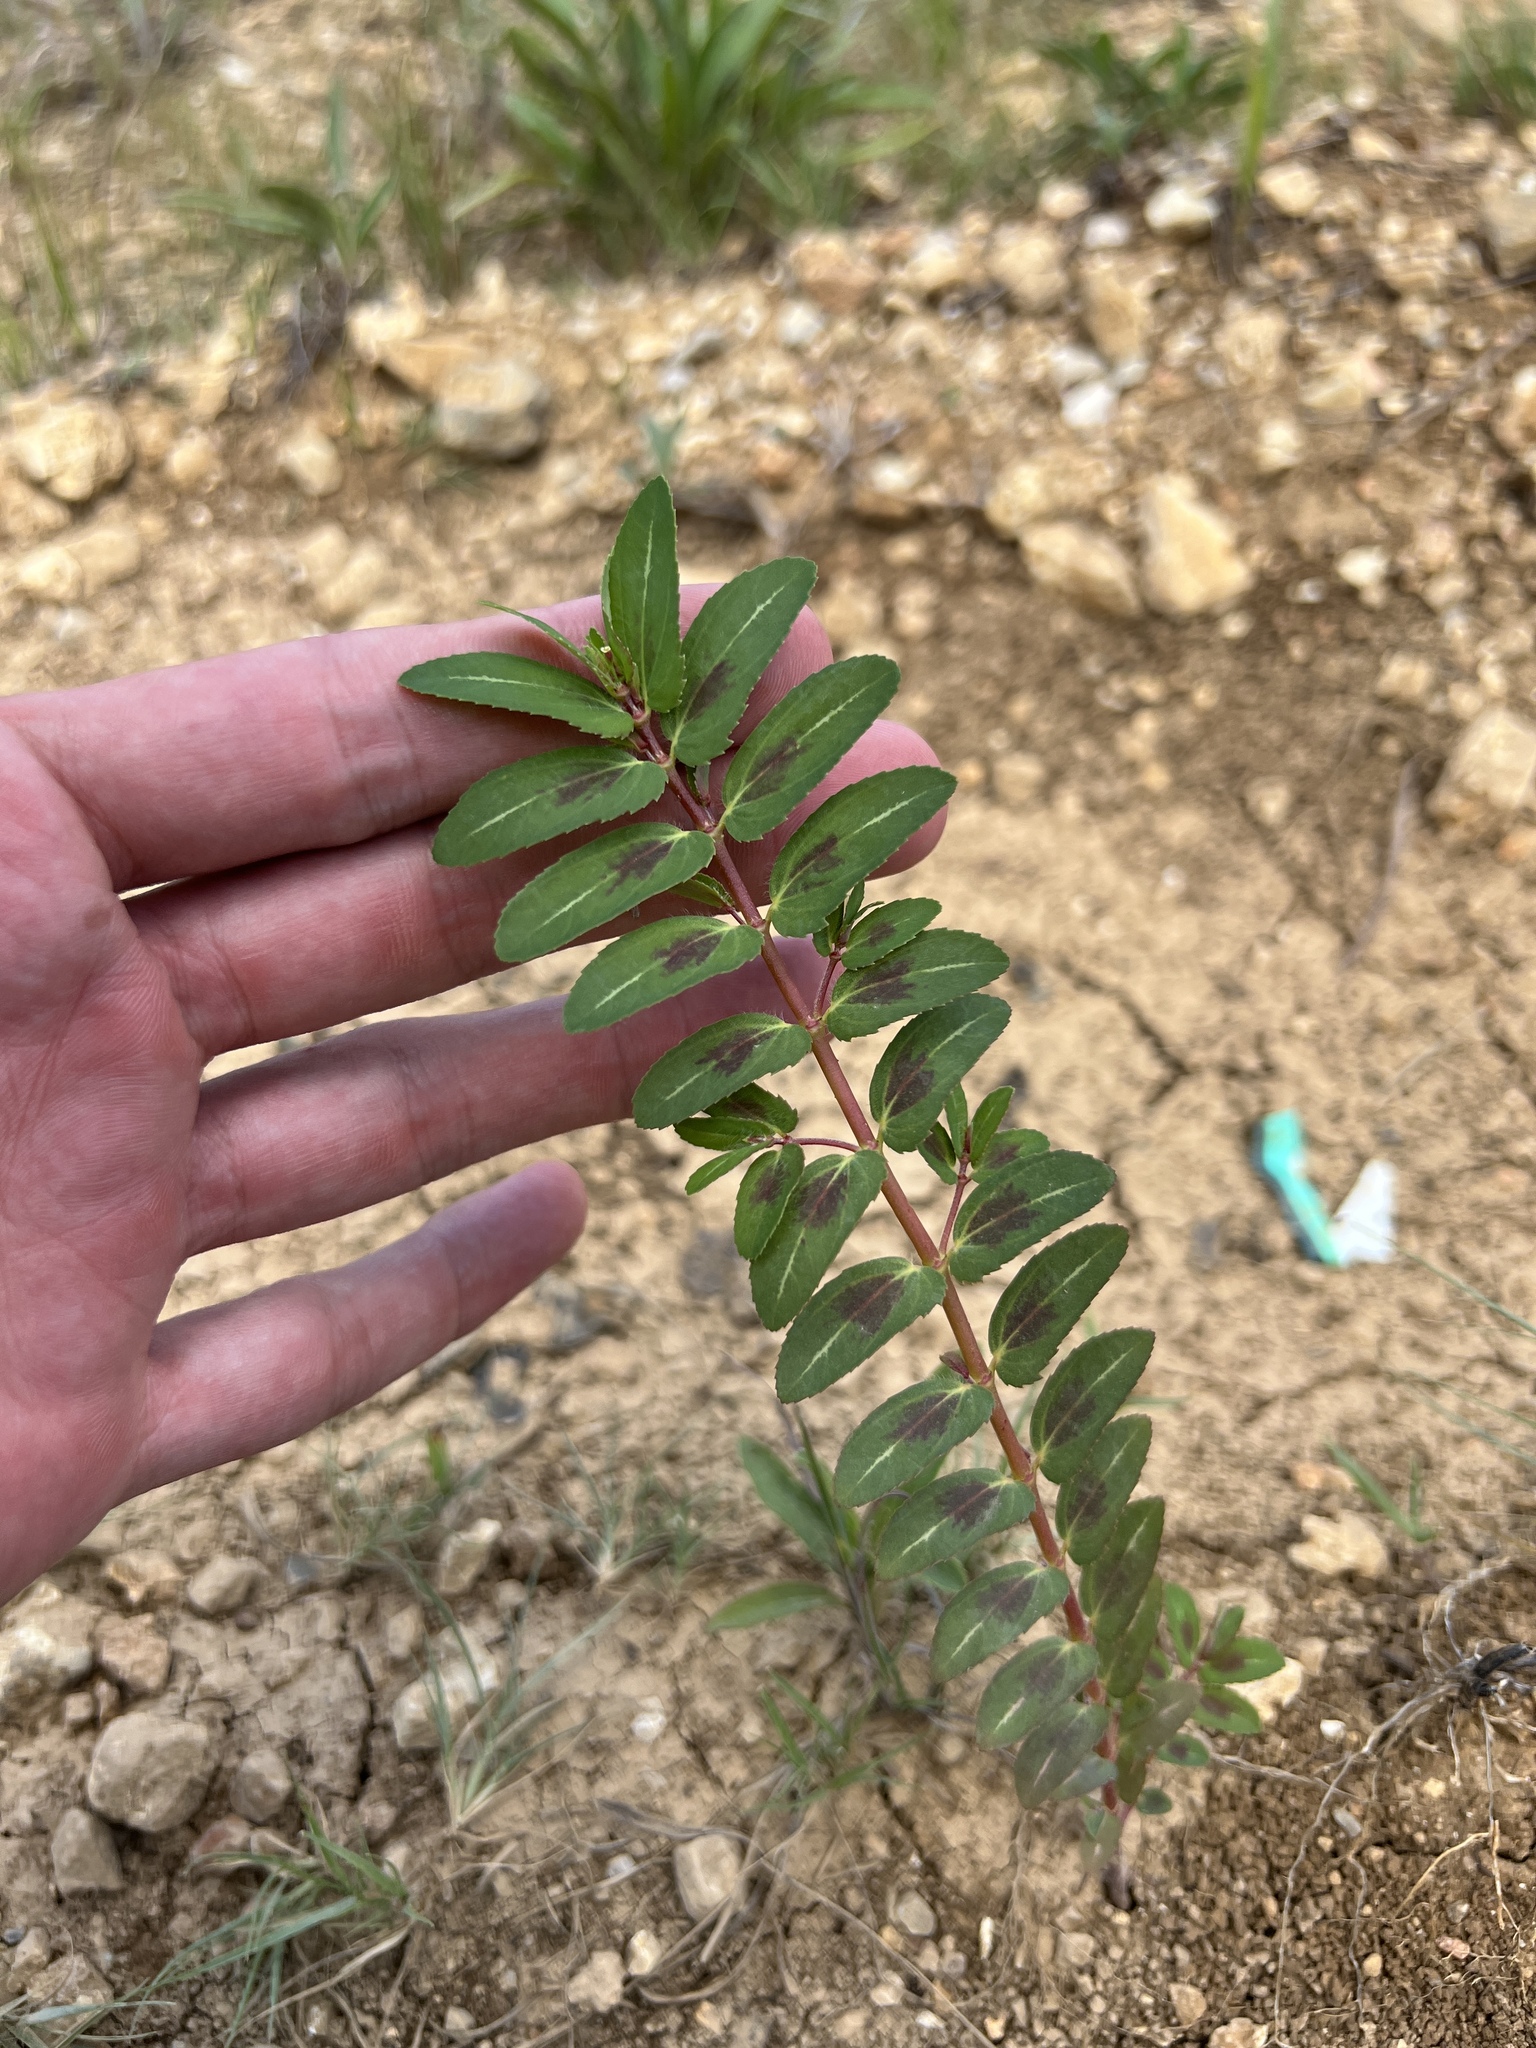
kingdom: Plantae
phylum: Tracheophyta
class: Magnoliopsida
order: Malpighiales
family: Euphorbiaceae
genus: Euphorbia
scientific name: Euphorbia nutans
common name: Eyebane
